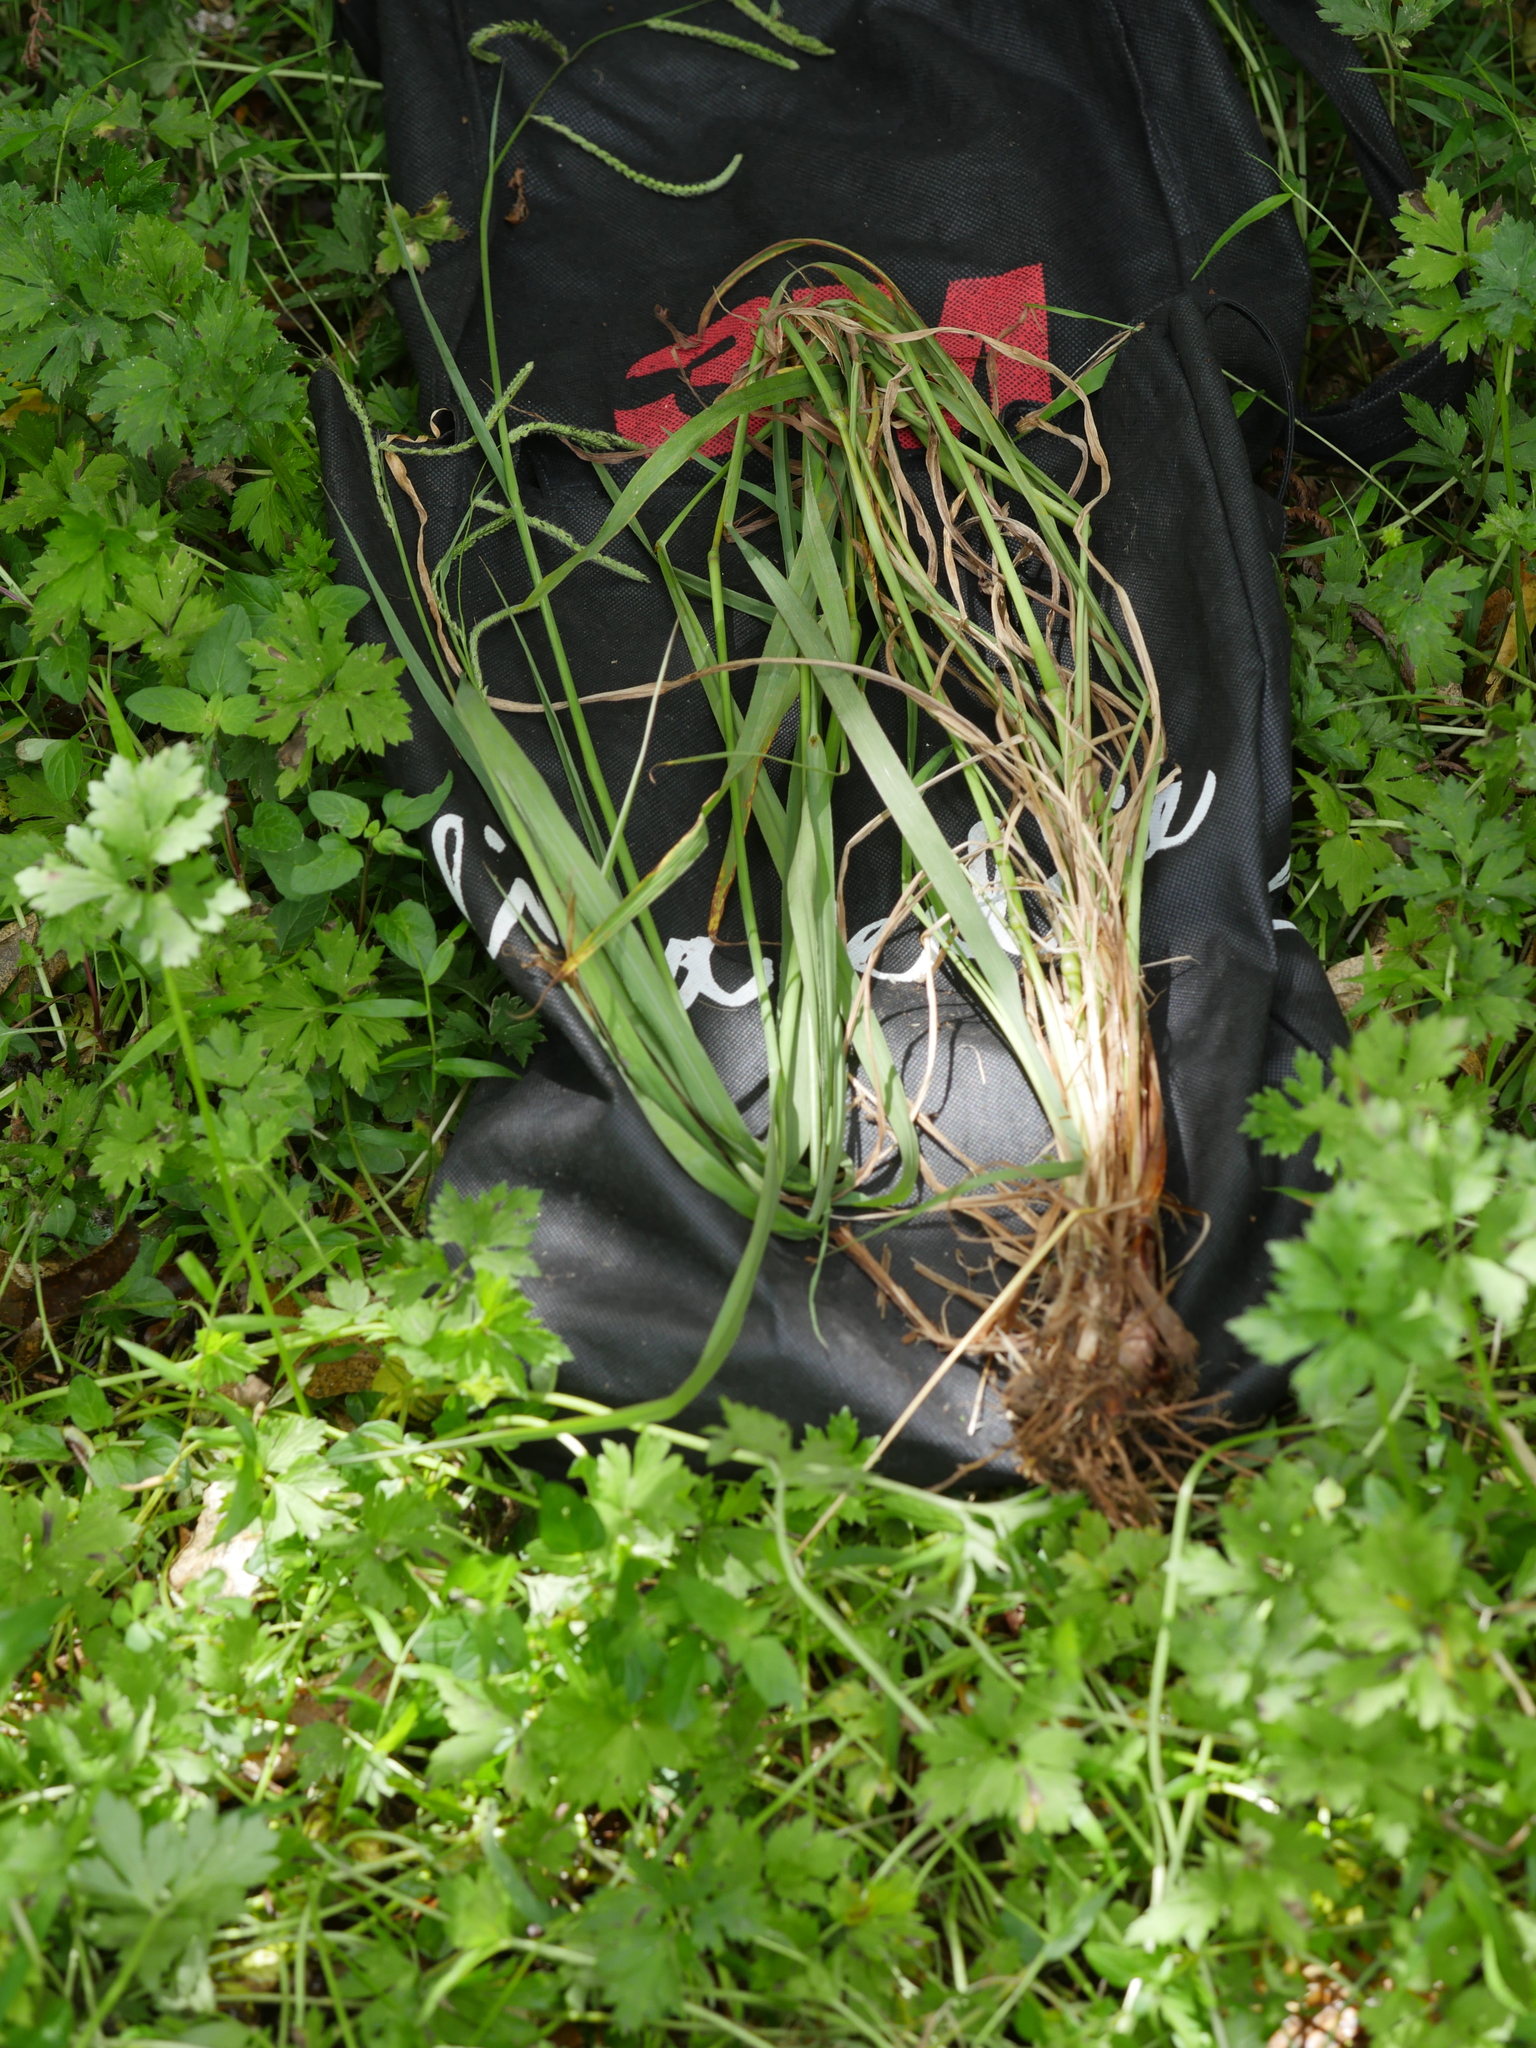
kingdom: Plantae
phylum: Tracheophyta
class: Liliopsida
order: Poales
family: Poaceae
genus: Paspalum
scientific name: Paspalum dilatatum
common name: Dallisgrass
